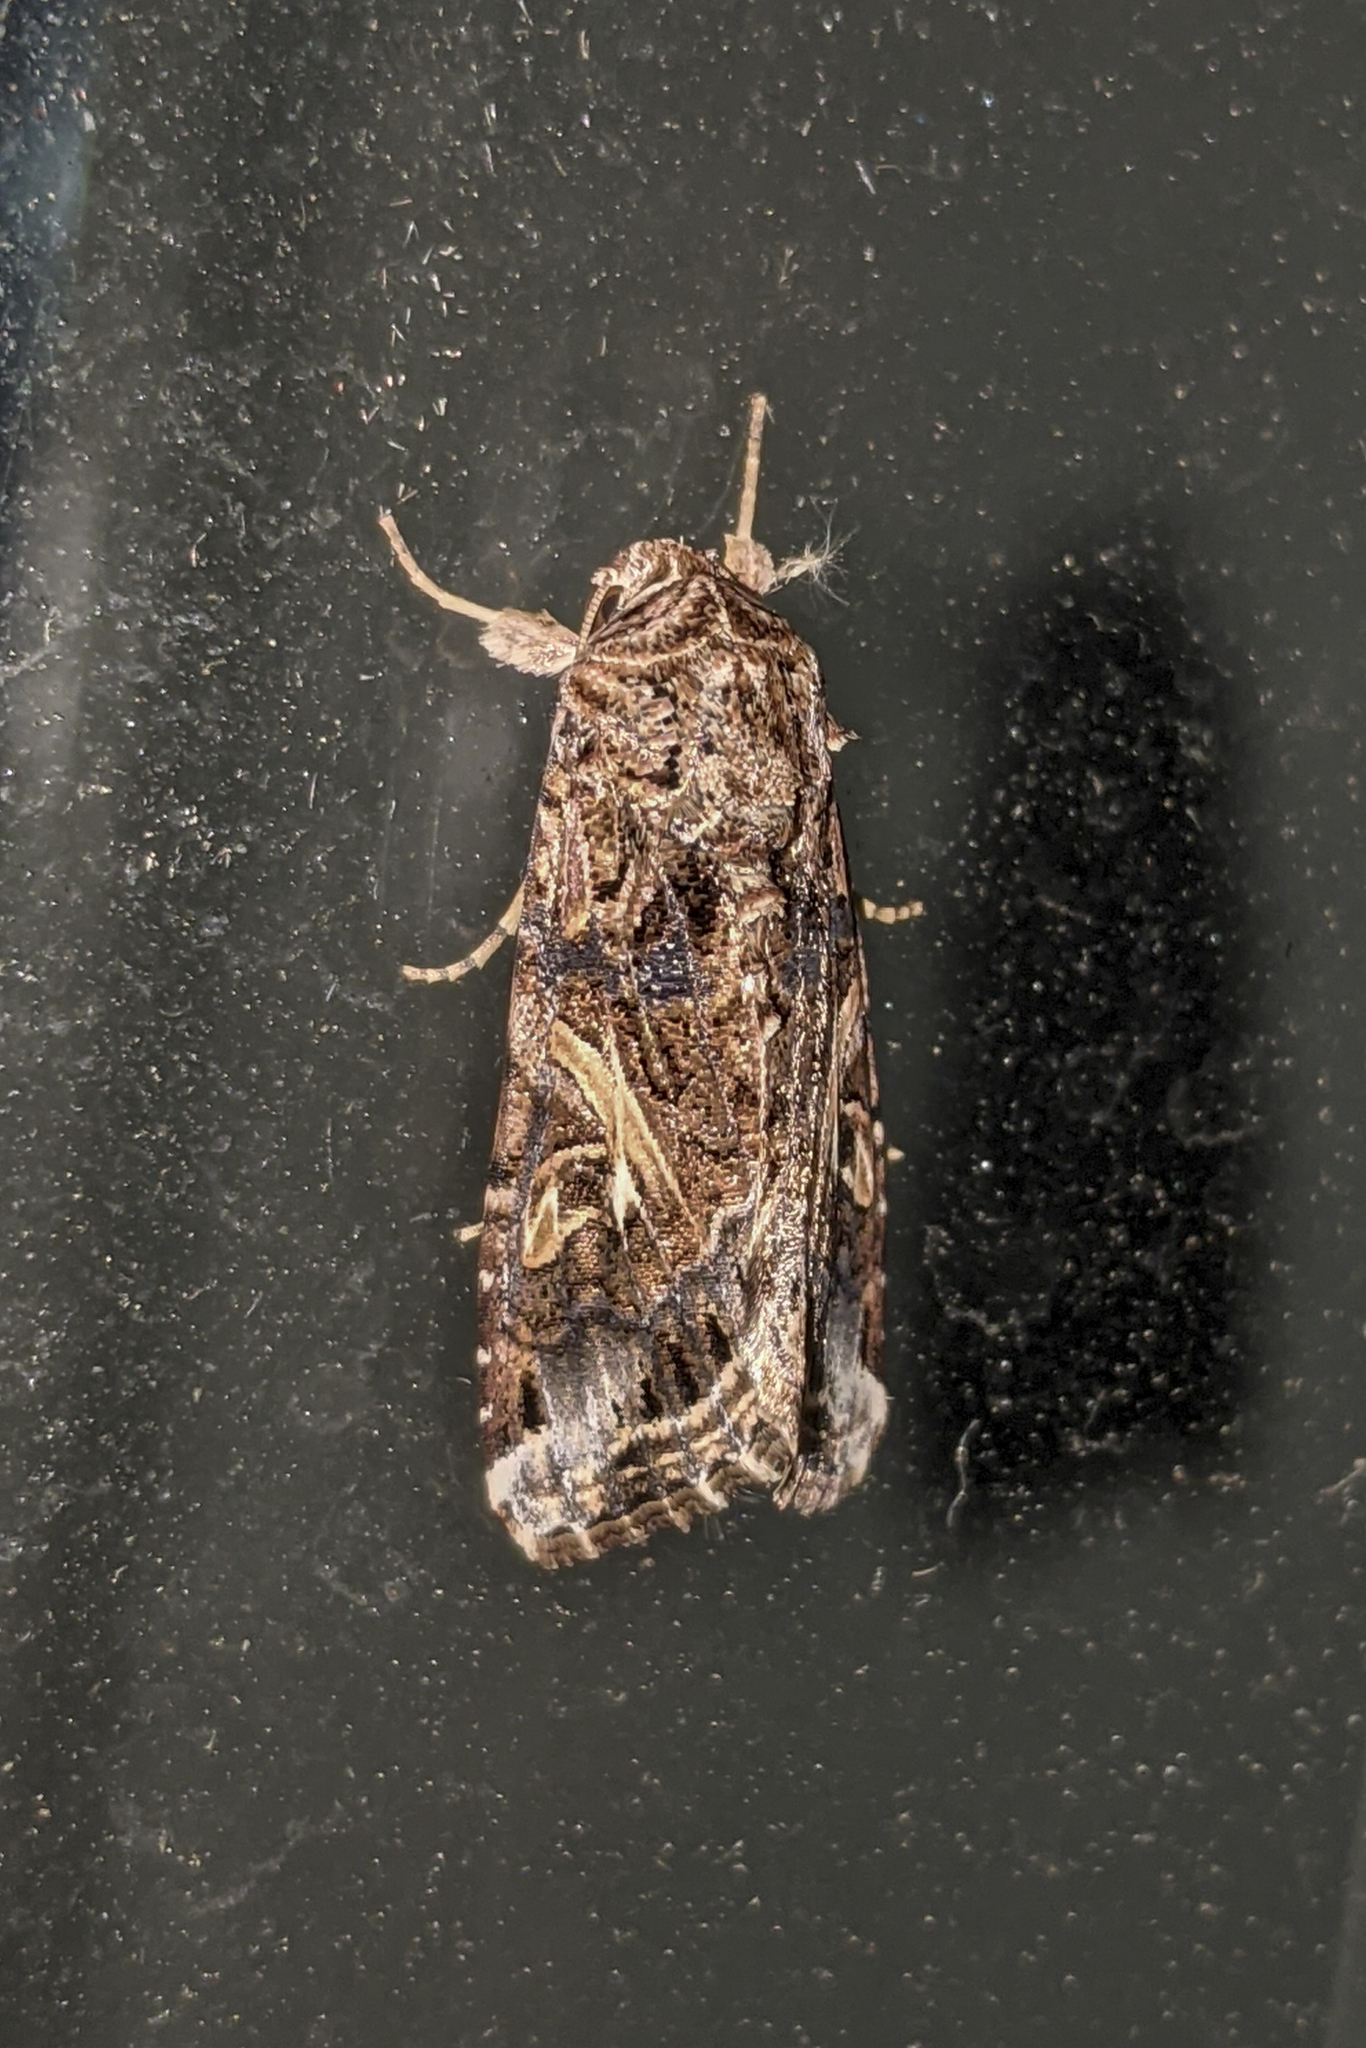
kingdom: Animalia
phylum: Arthropoda
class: Insecta
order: Lepidoptera
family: Noctuidae
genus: Spodoptera
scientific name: Spodoptera ornithogalli
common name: Yellow-striped armyworm
